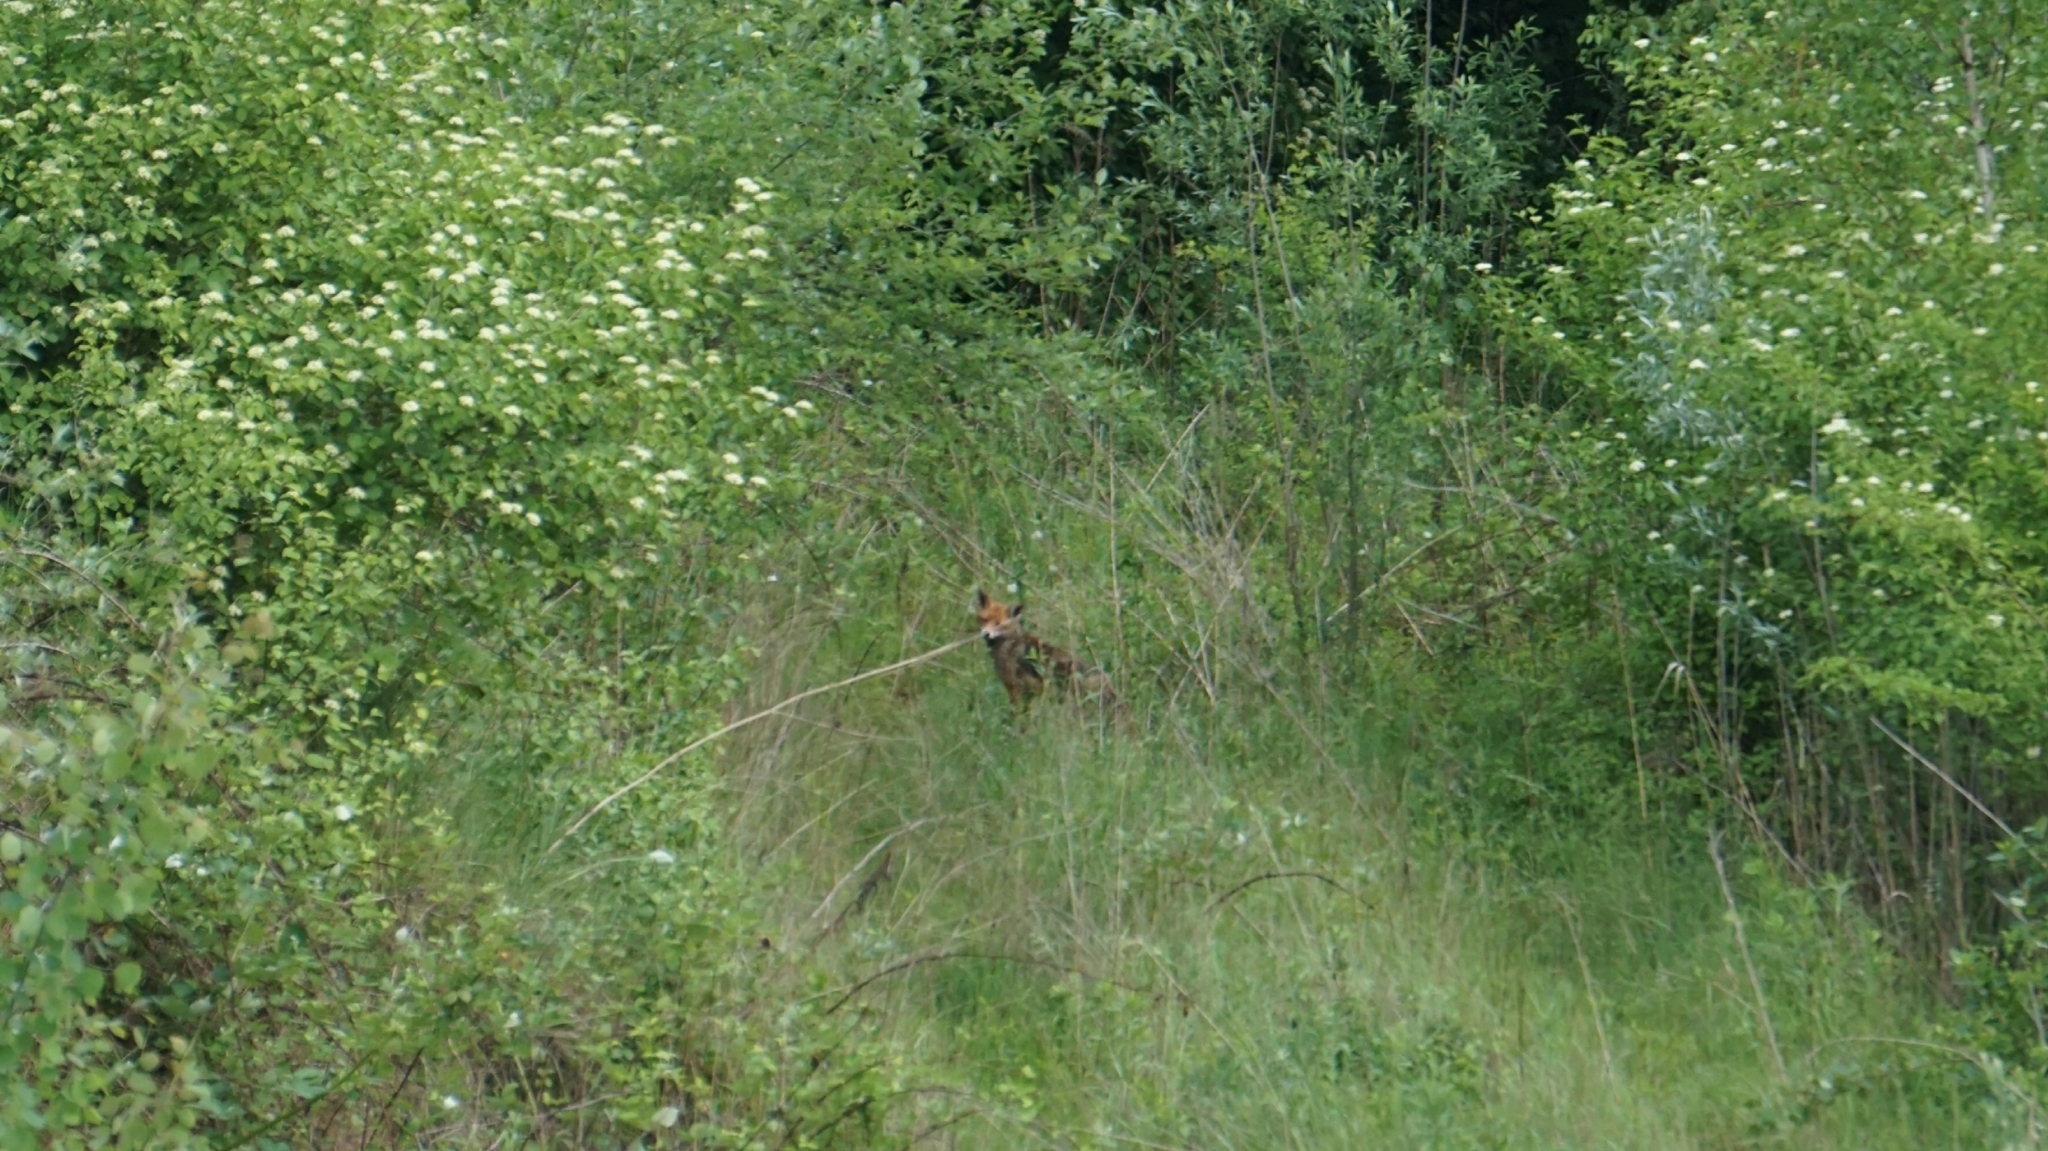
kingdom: Animalia
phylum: Chordata
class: Mammalia
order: Carnivora
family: Canidae
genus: Vulpes
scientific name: Vulpes vulpes
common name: Red fox
